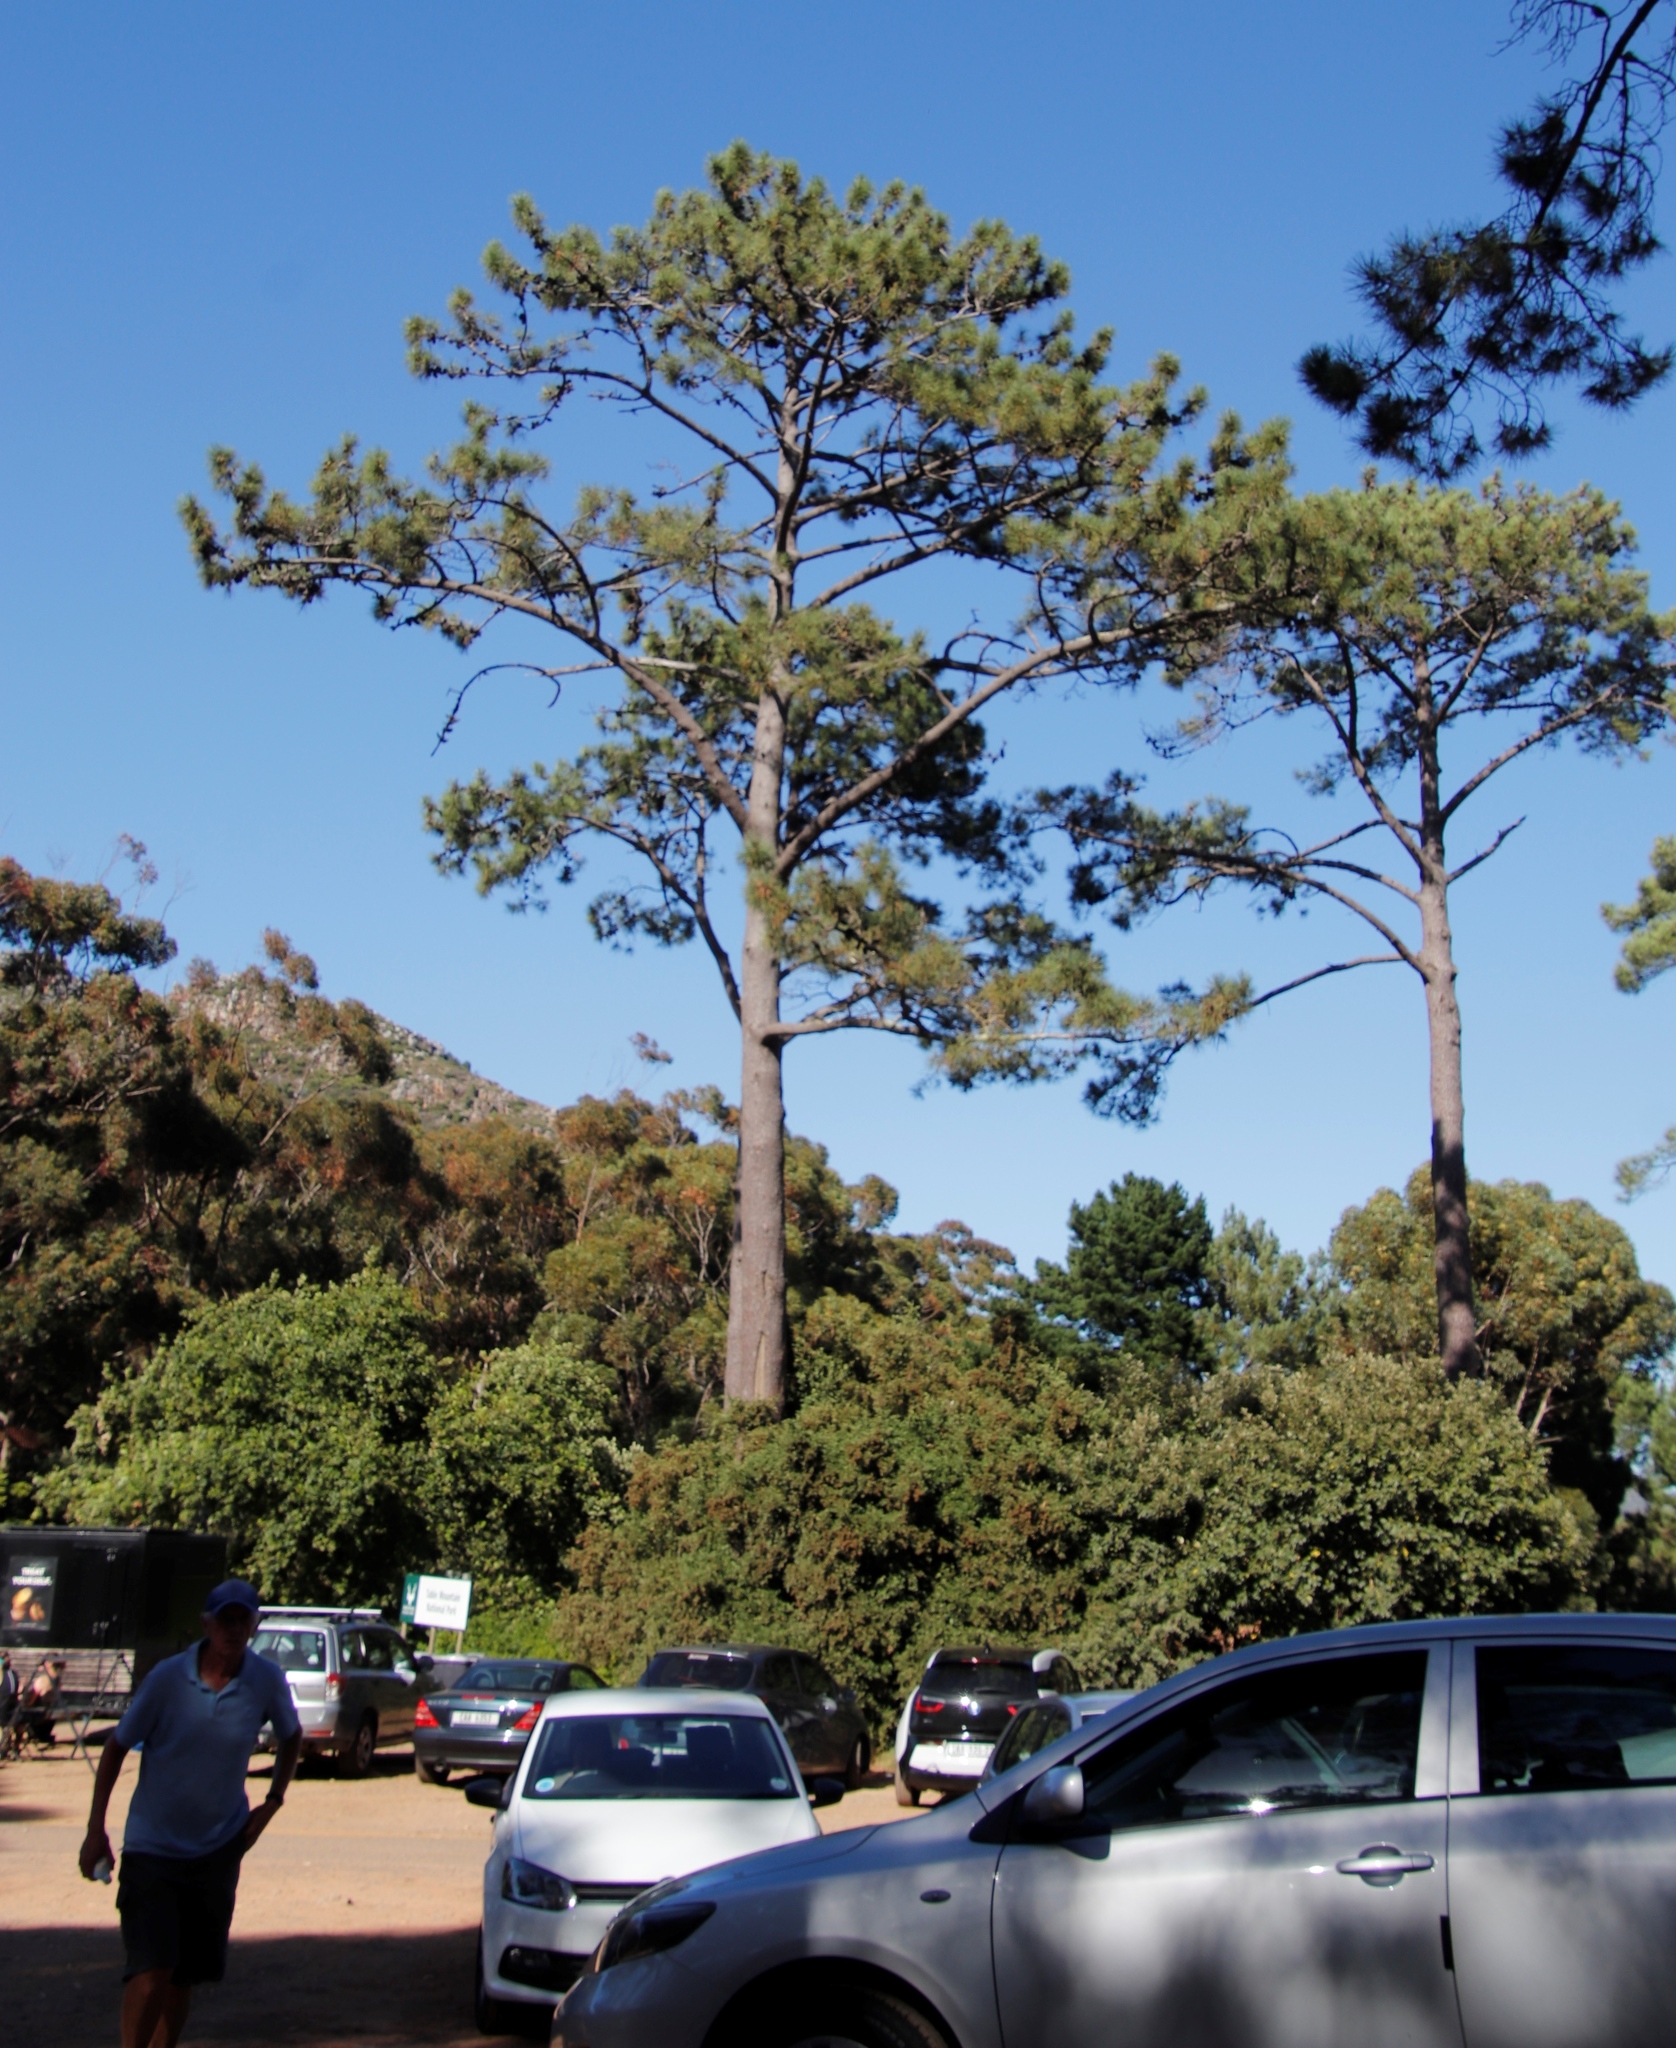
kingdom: Plantae
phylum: Tracheophyta
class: Pinopsida
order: Pinales
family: Pinaceae
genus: Pinus
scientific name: Pinus pinaster
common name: Maritime pine
